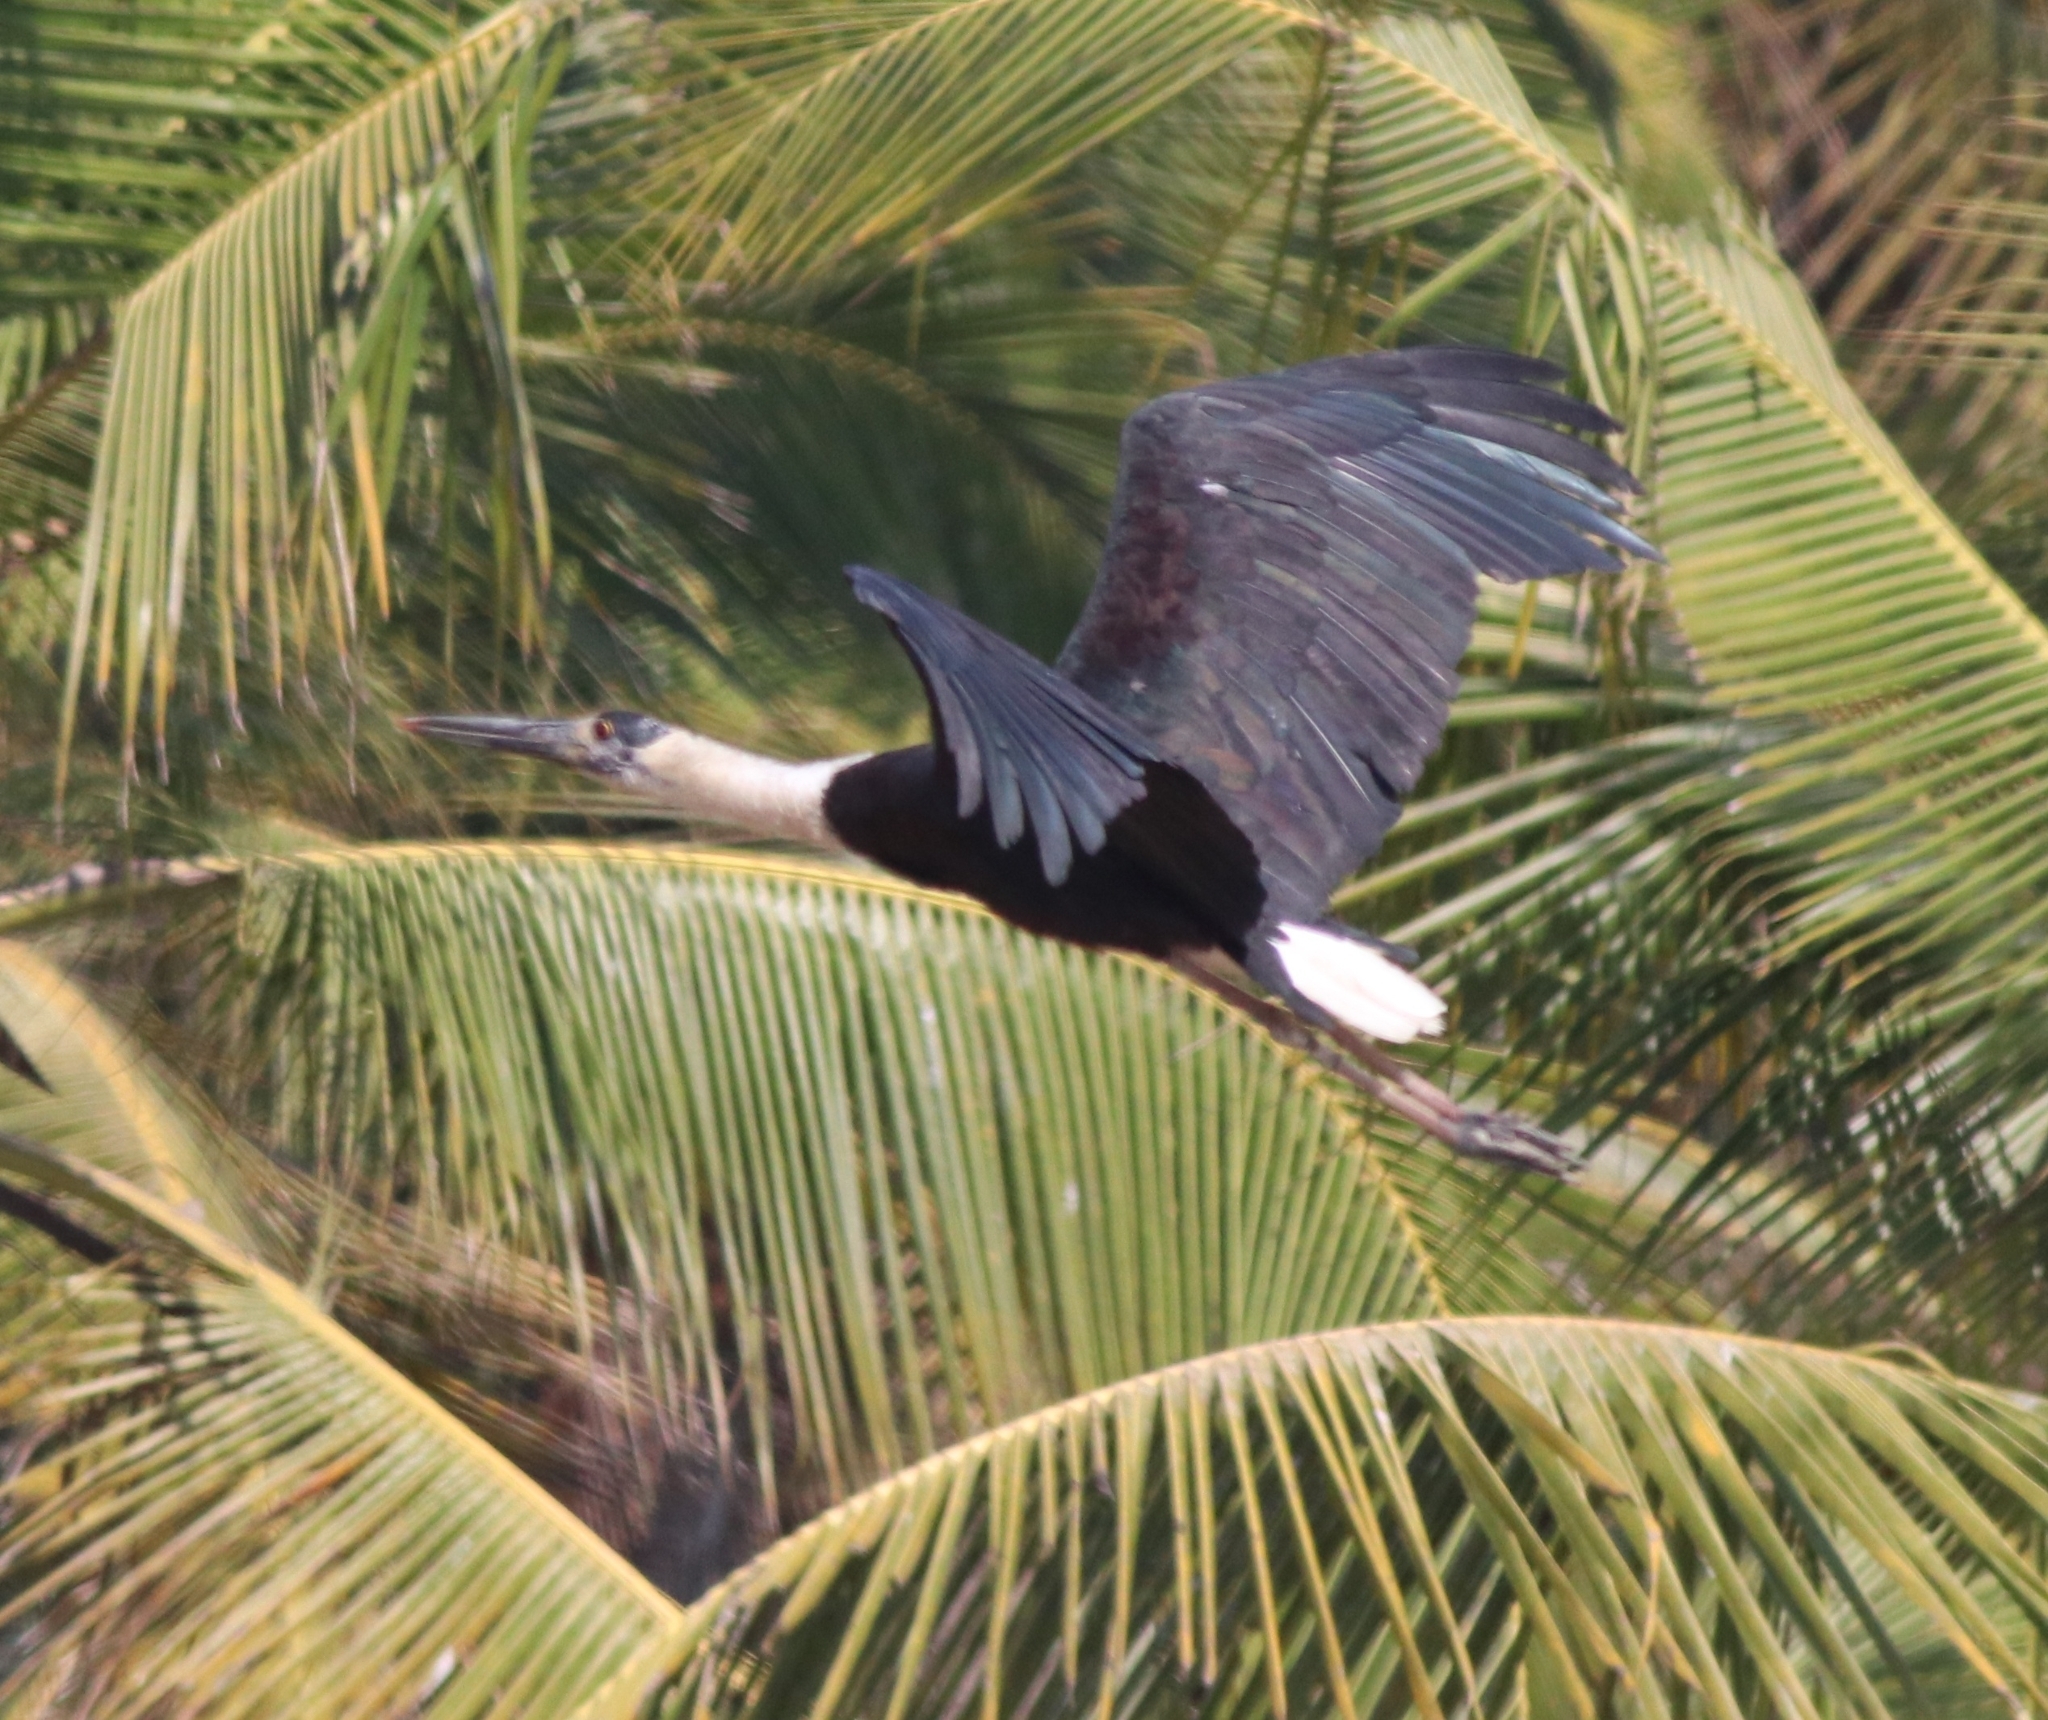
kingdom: Animalia
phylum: Chordata
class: Aves
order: Ciconiiformes
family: Ciconiidae
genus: Ciconia
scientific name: Ciconia episcopus
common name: Woolly-necked stork
